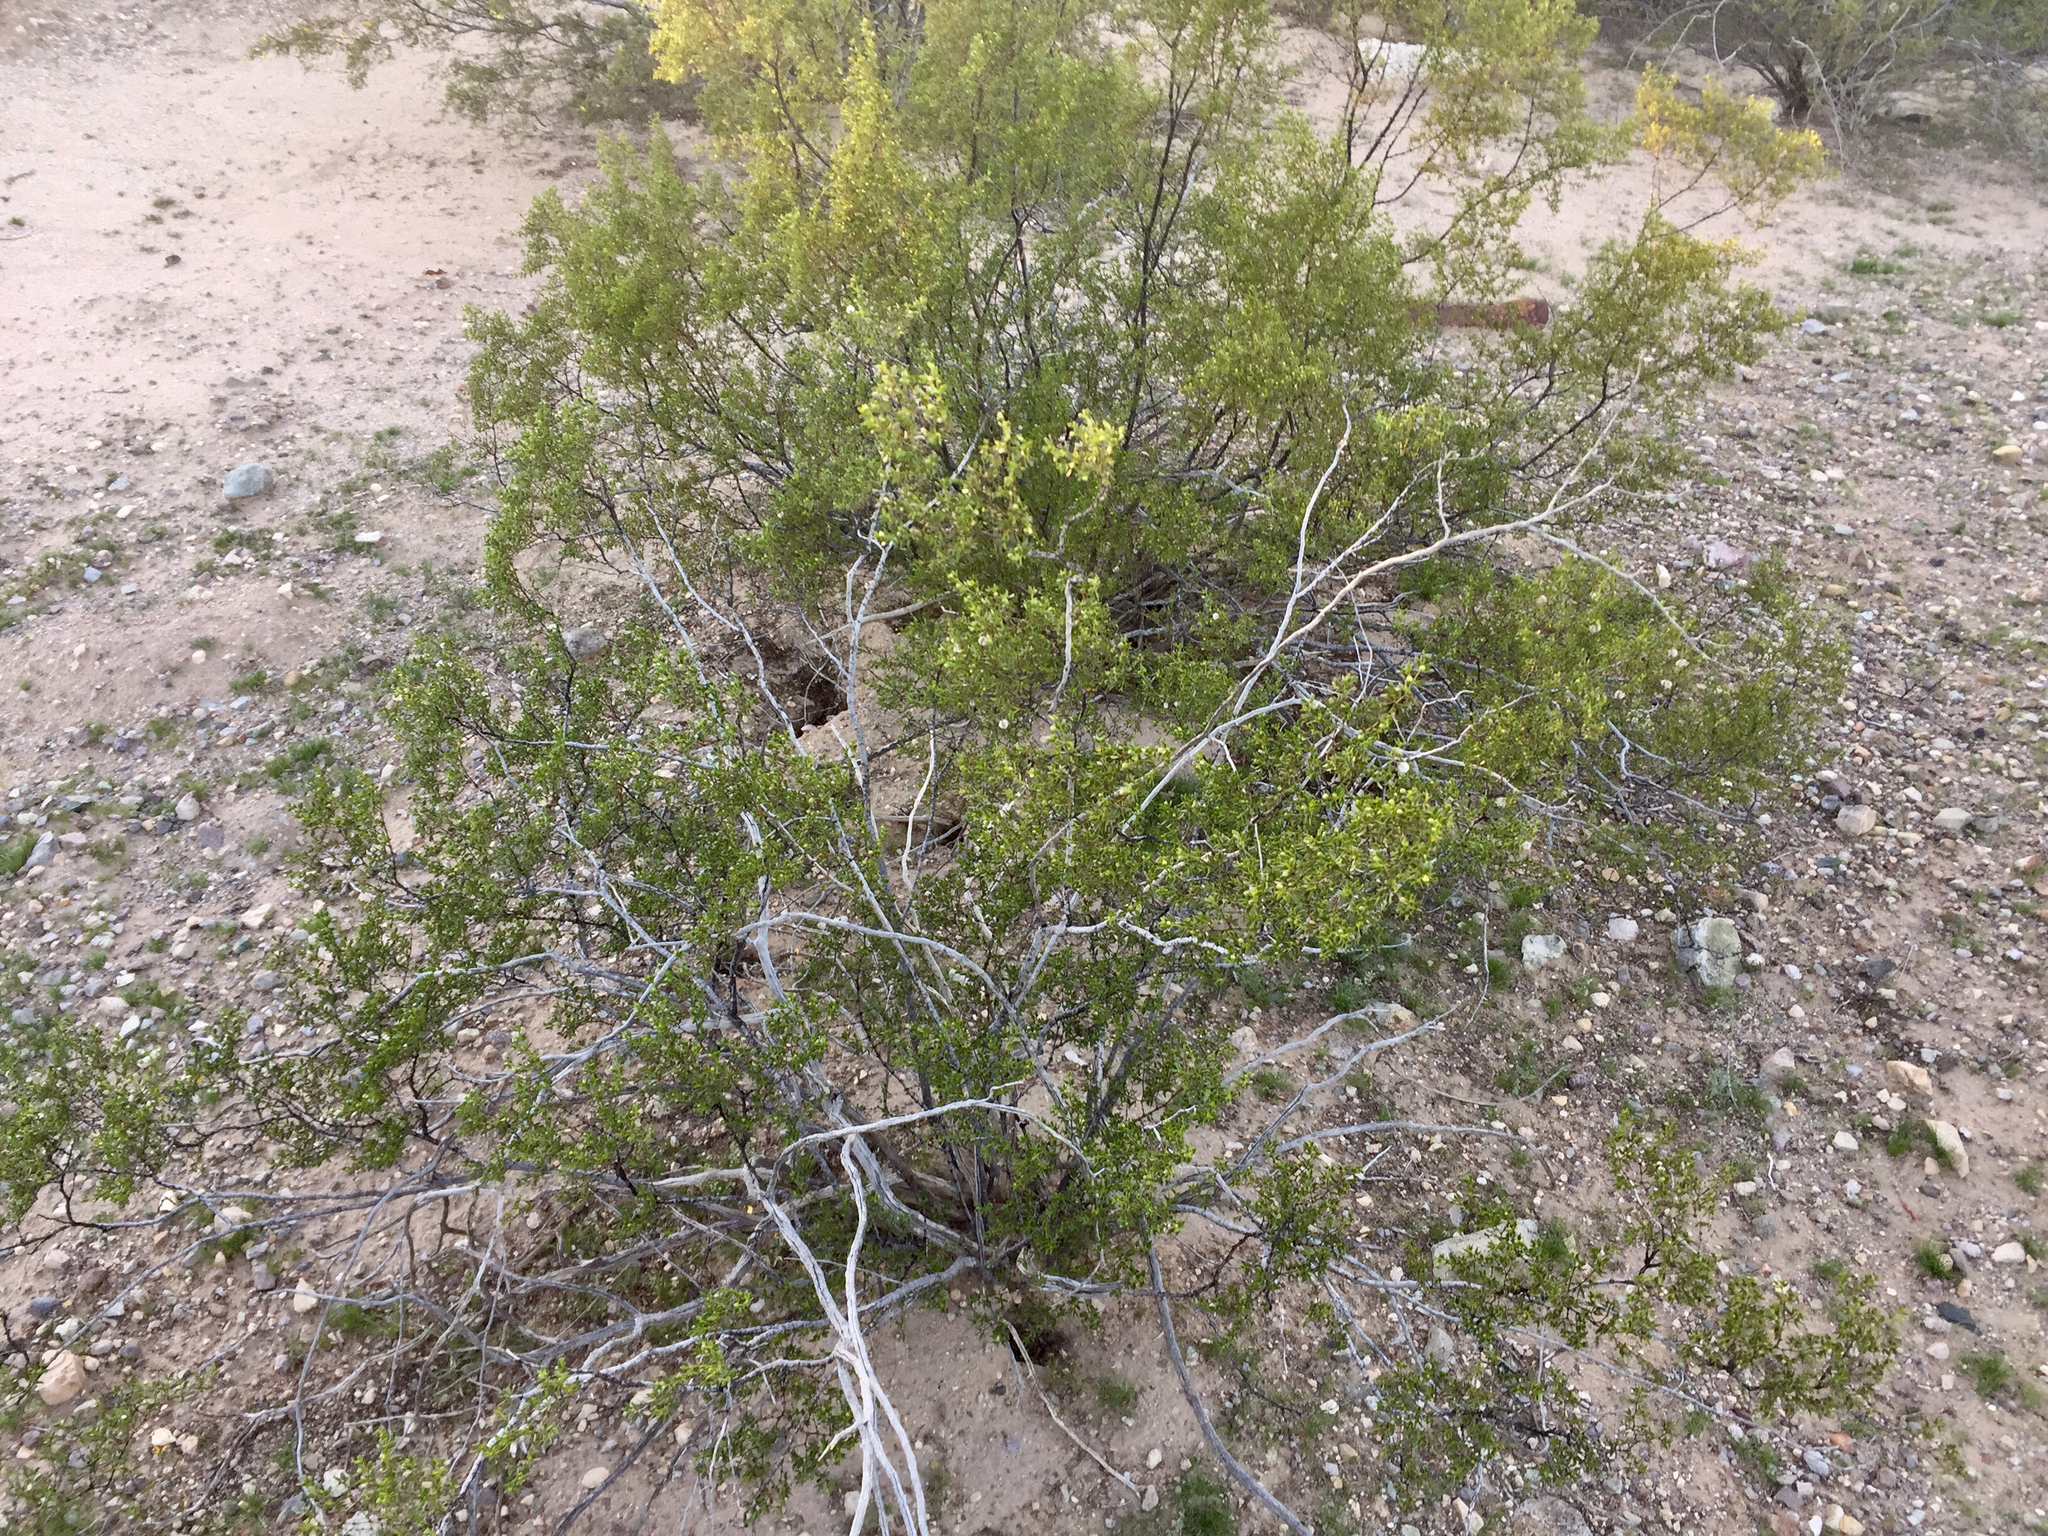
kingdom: Plantae
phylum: Tracheophyta
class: Magnoliopsida
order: Zygophyllales
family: Zygophyllaceae
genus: Larrea
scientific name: Larrea tridentata
